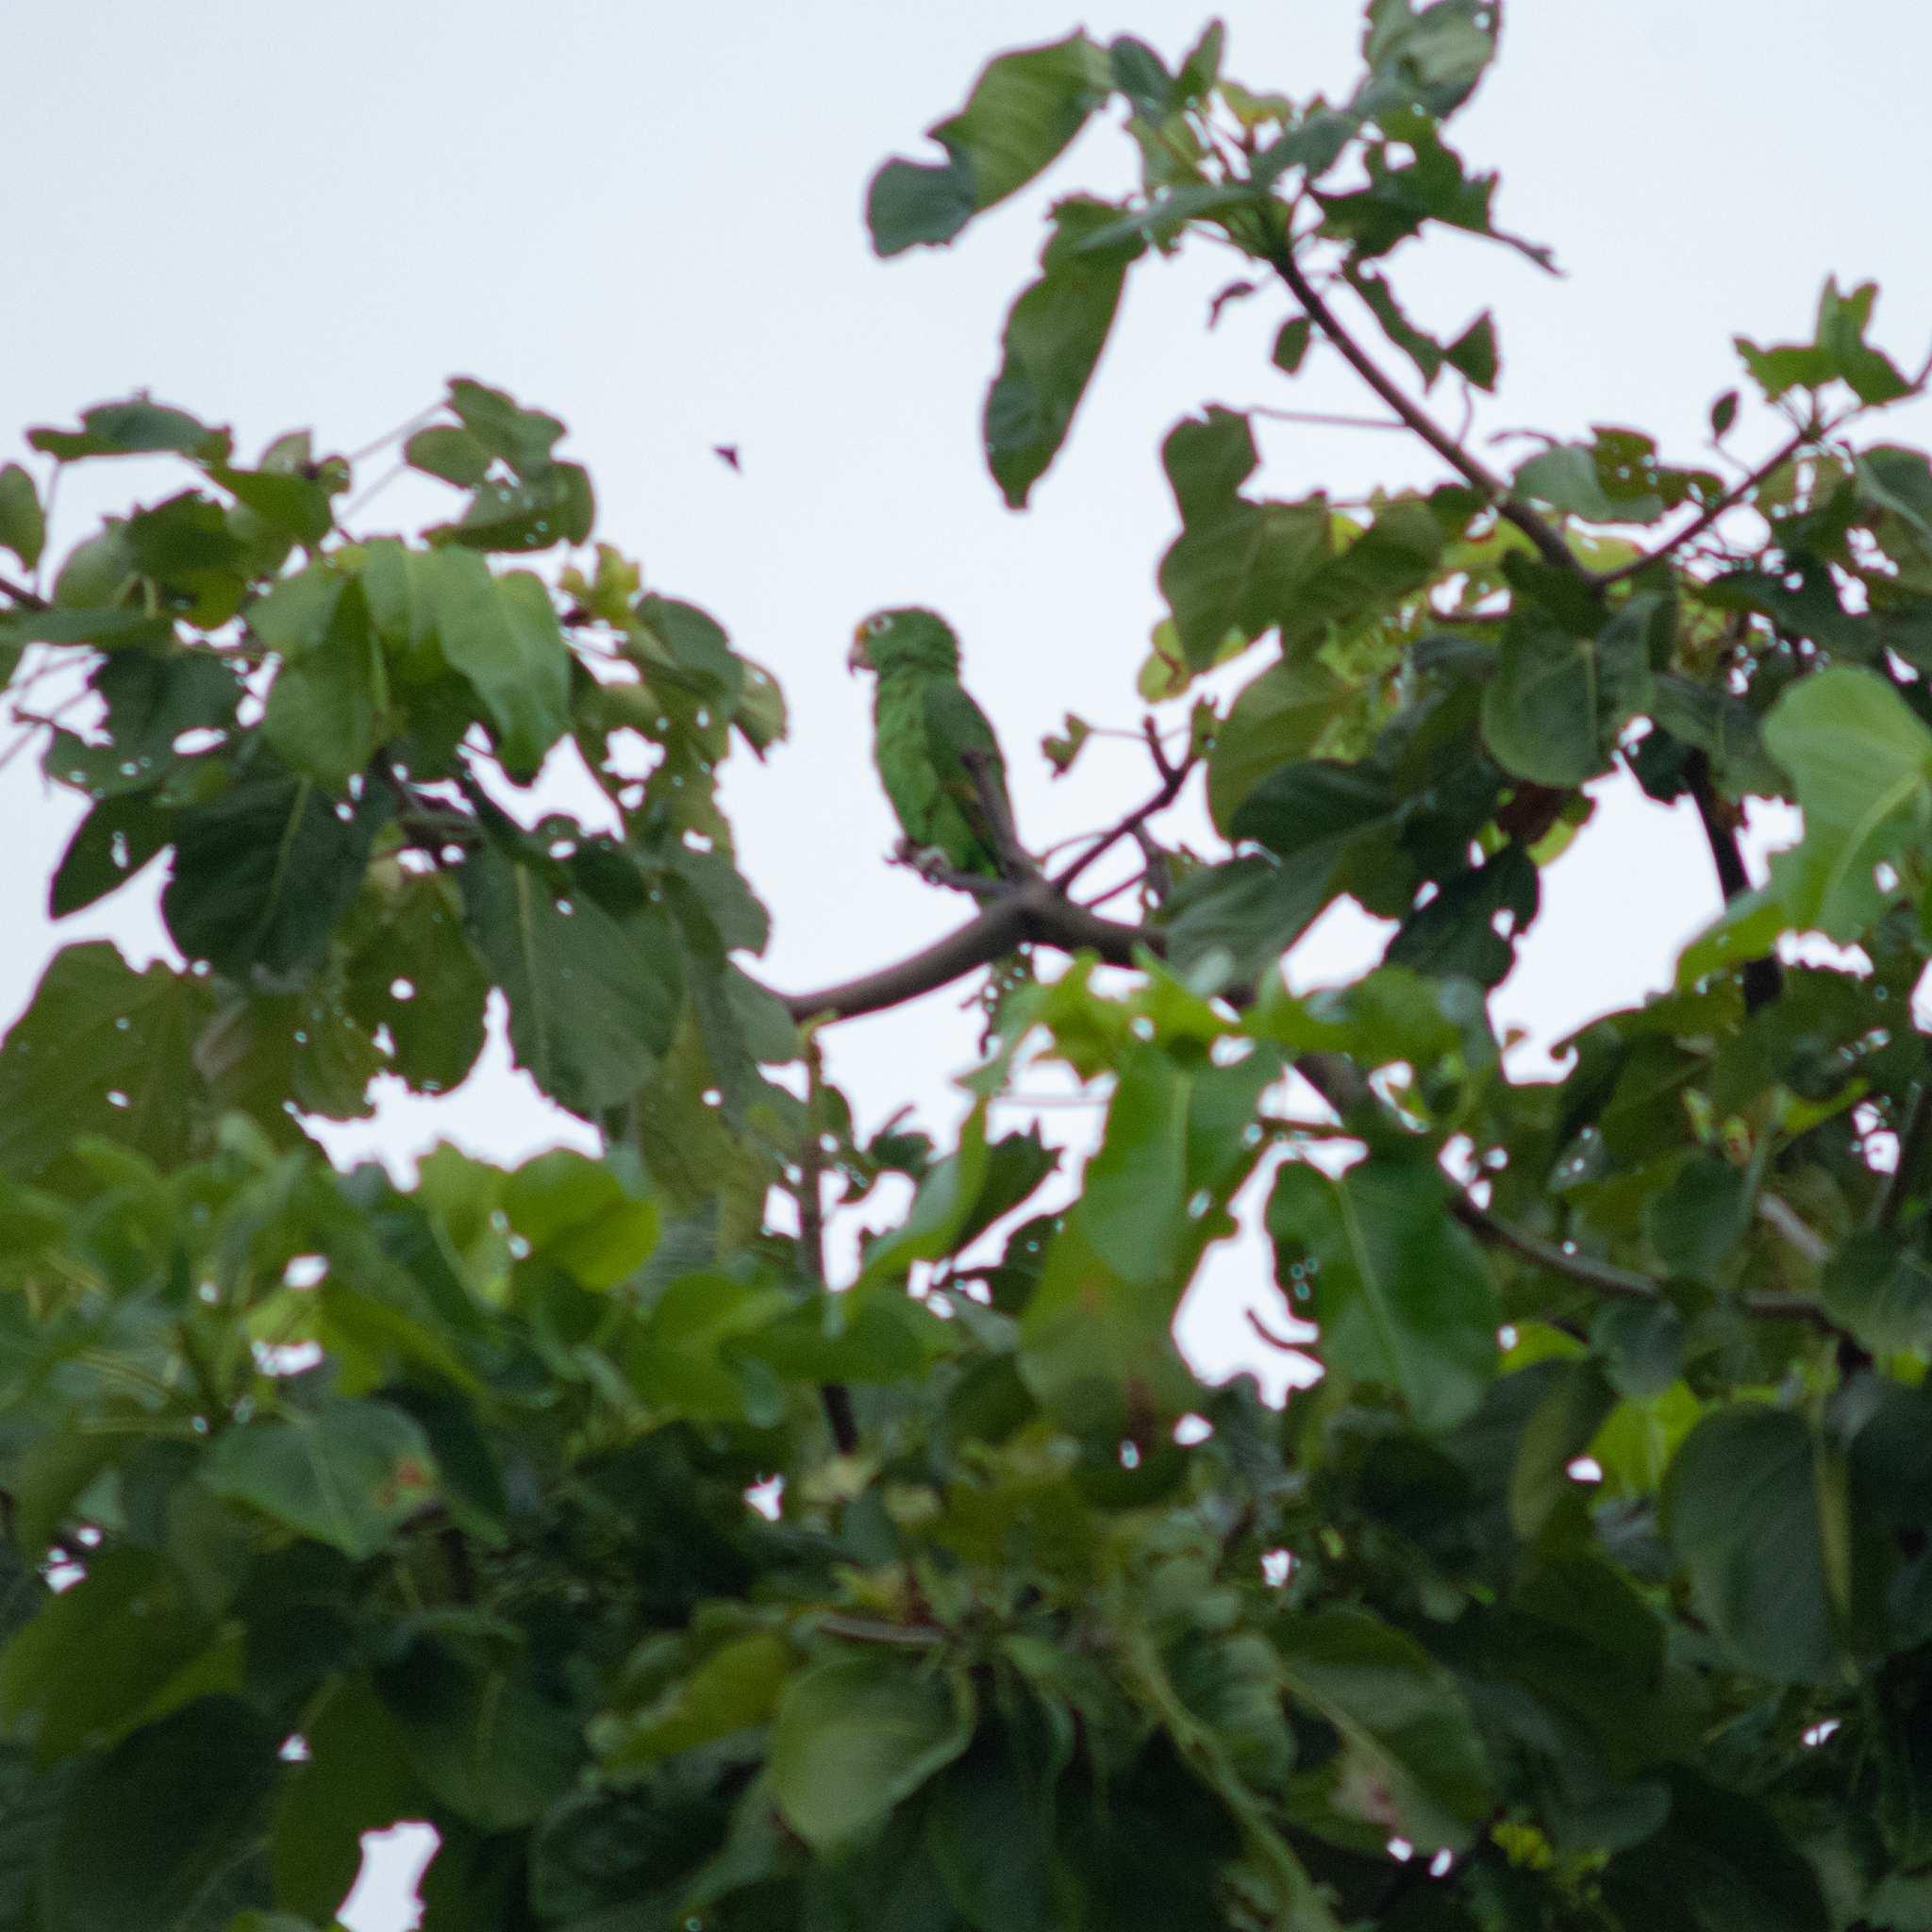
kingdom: Animalia
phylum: Chordata
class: Aves
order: Psittaciformes
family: Psittacidae
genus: Amazona
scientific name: Amazona ochrocephala
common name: Yellow-crowned amazon
